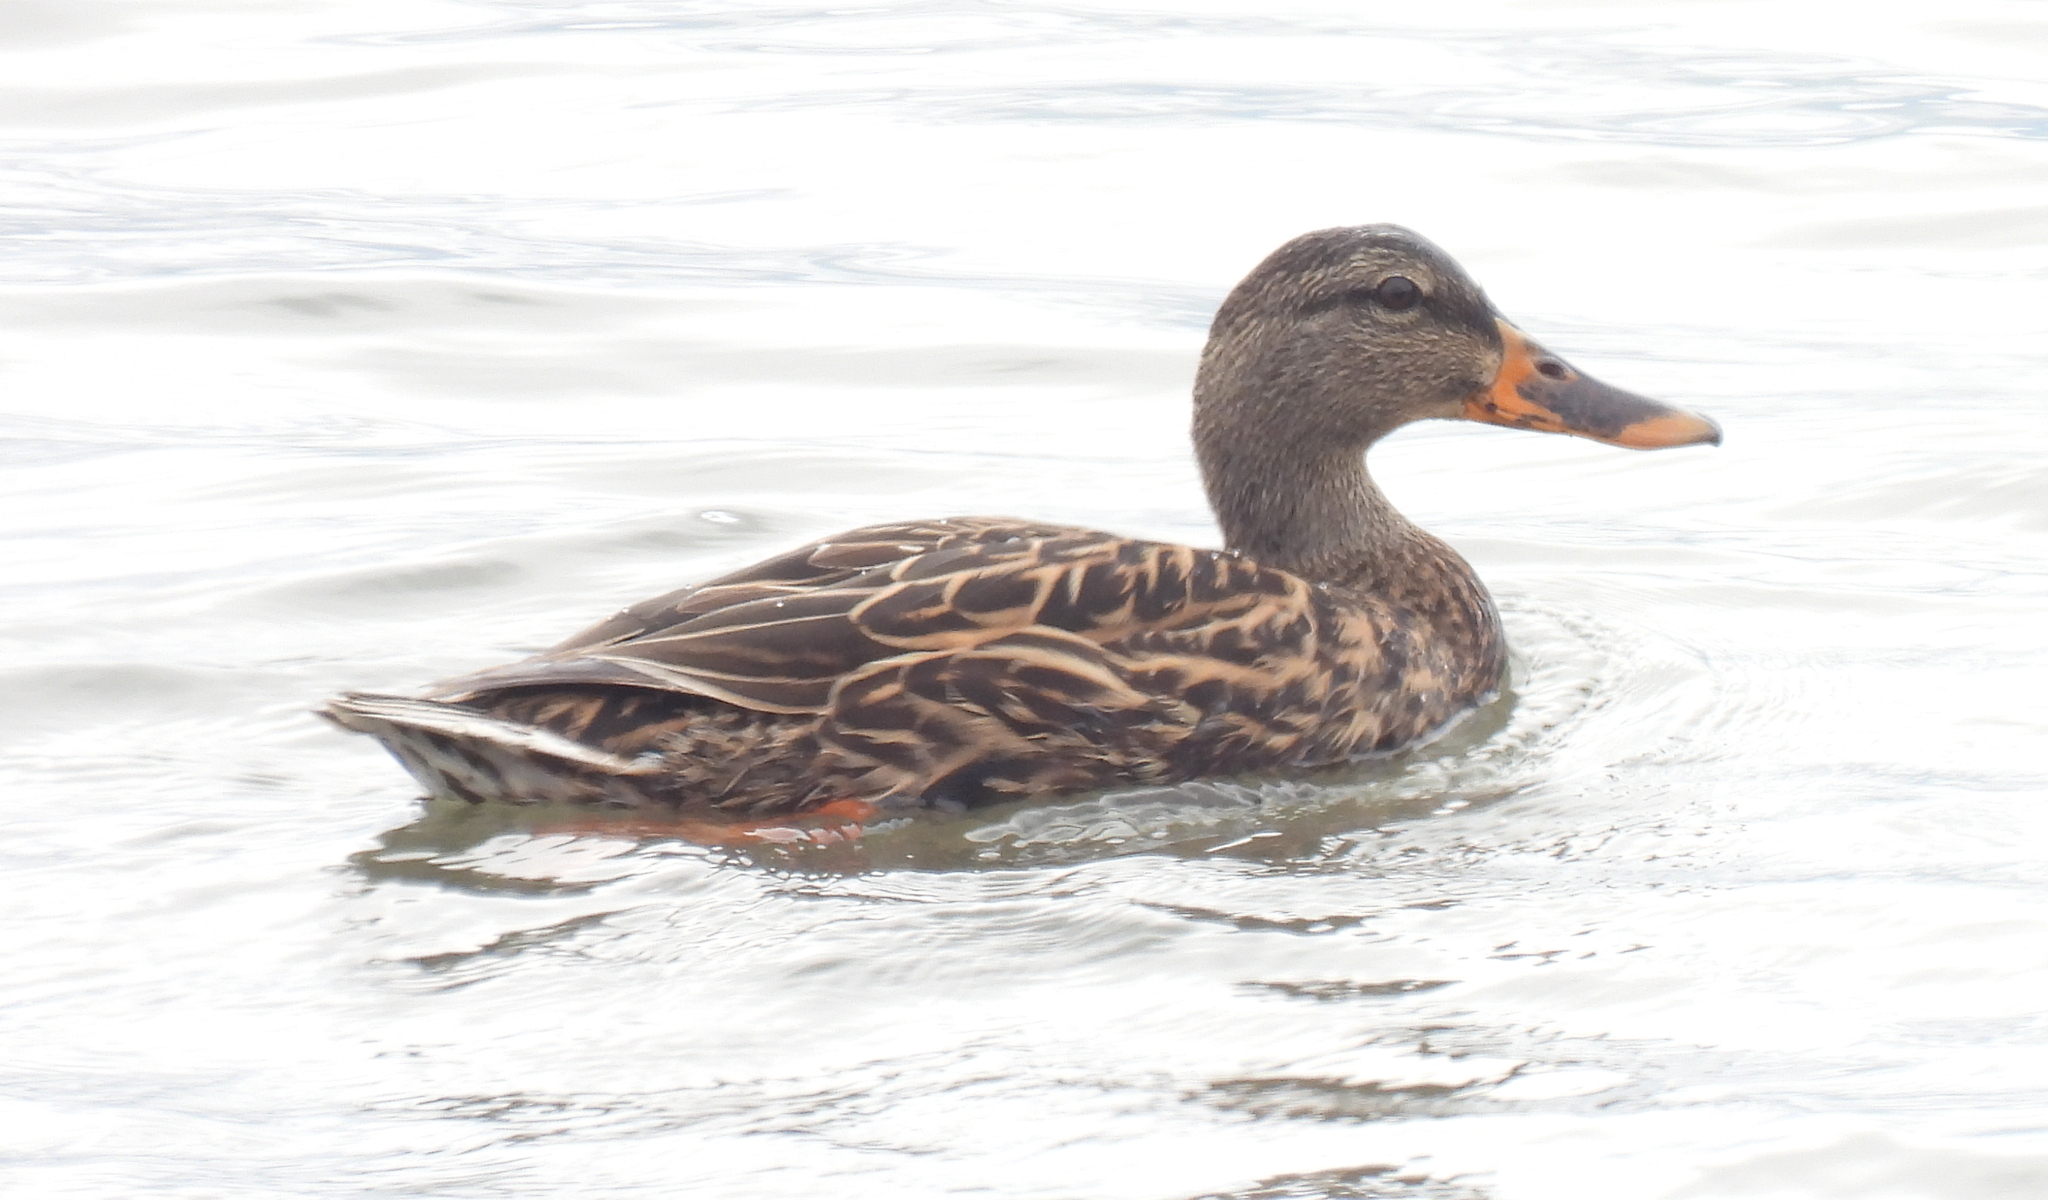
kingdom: Animalia
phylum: Chordata
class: Aves
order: Anseriformes
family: Anatidae
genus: Anas
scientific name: Anas platyrhynchos
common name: Mallard
